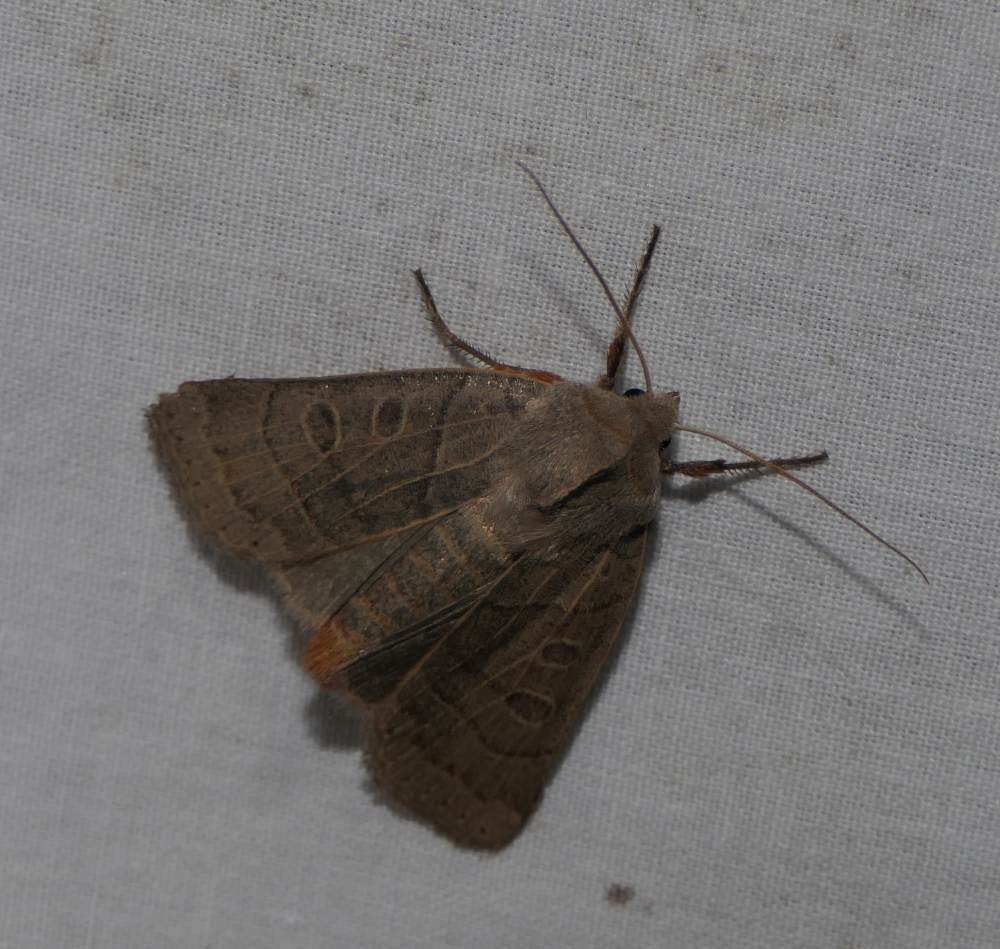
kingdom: Animalia
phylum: Arthropoda
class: Insecta
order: Lepidoptera
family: Noctuidae
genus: Chaetaglaea
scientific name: Chaetaglaea sericea
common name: Silky sallow
